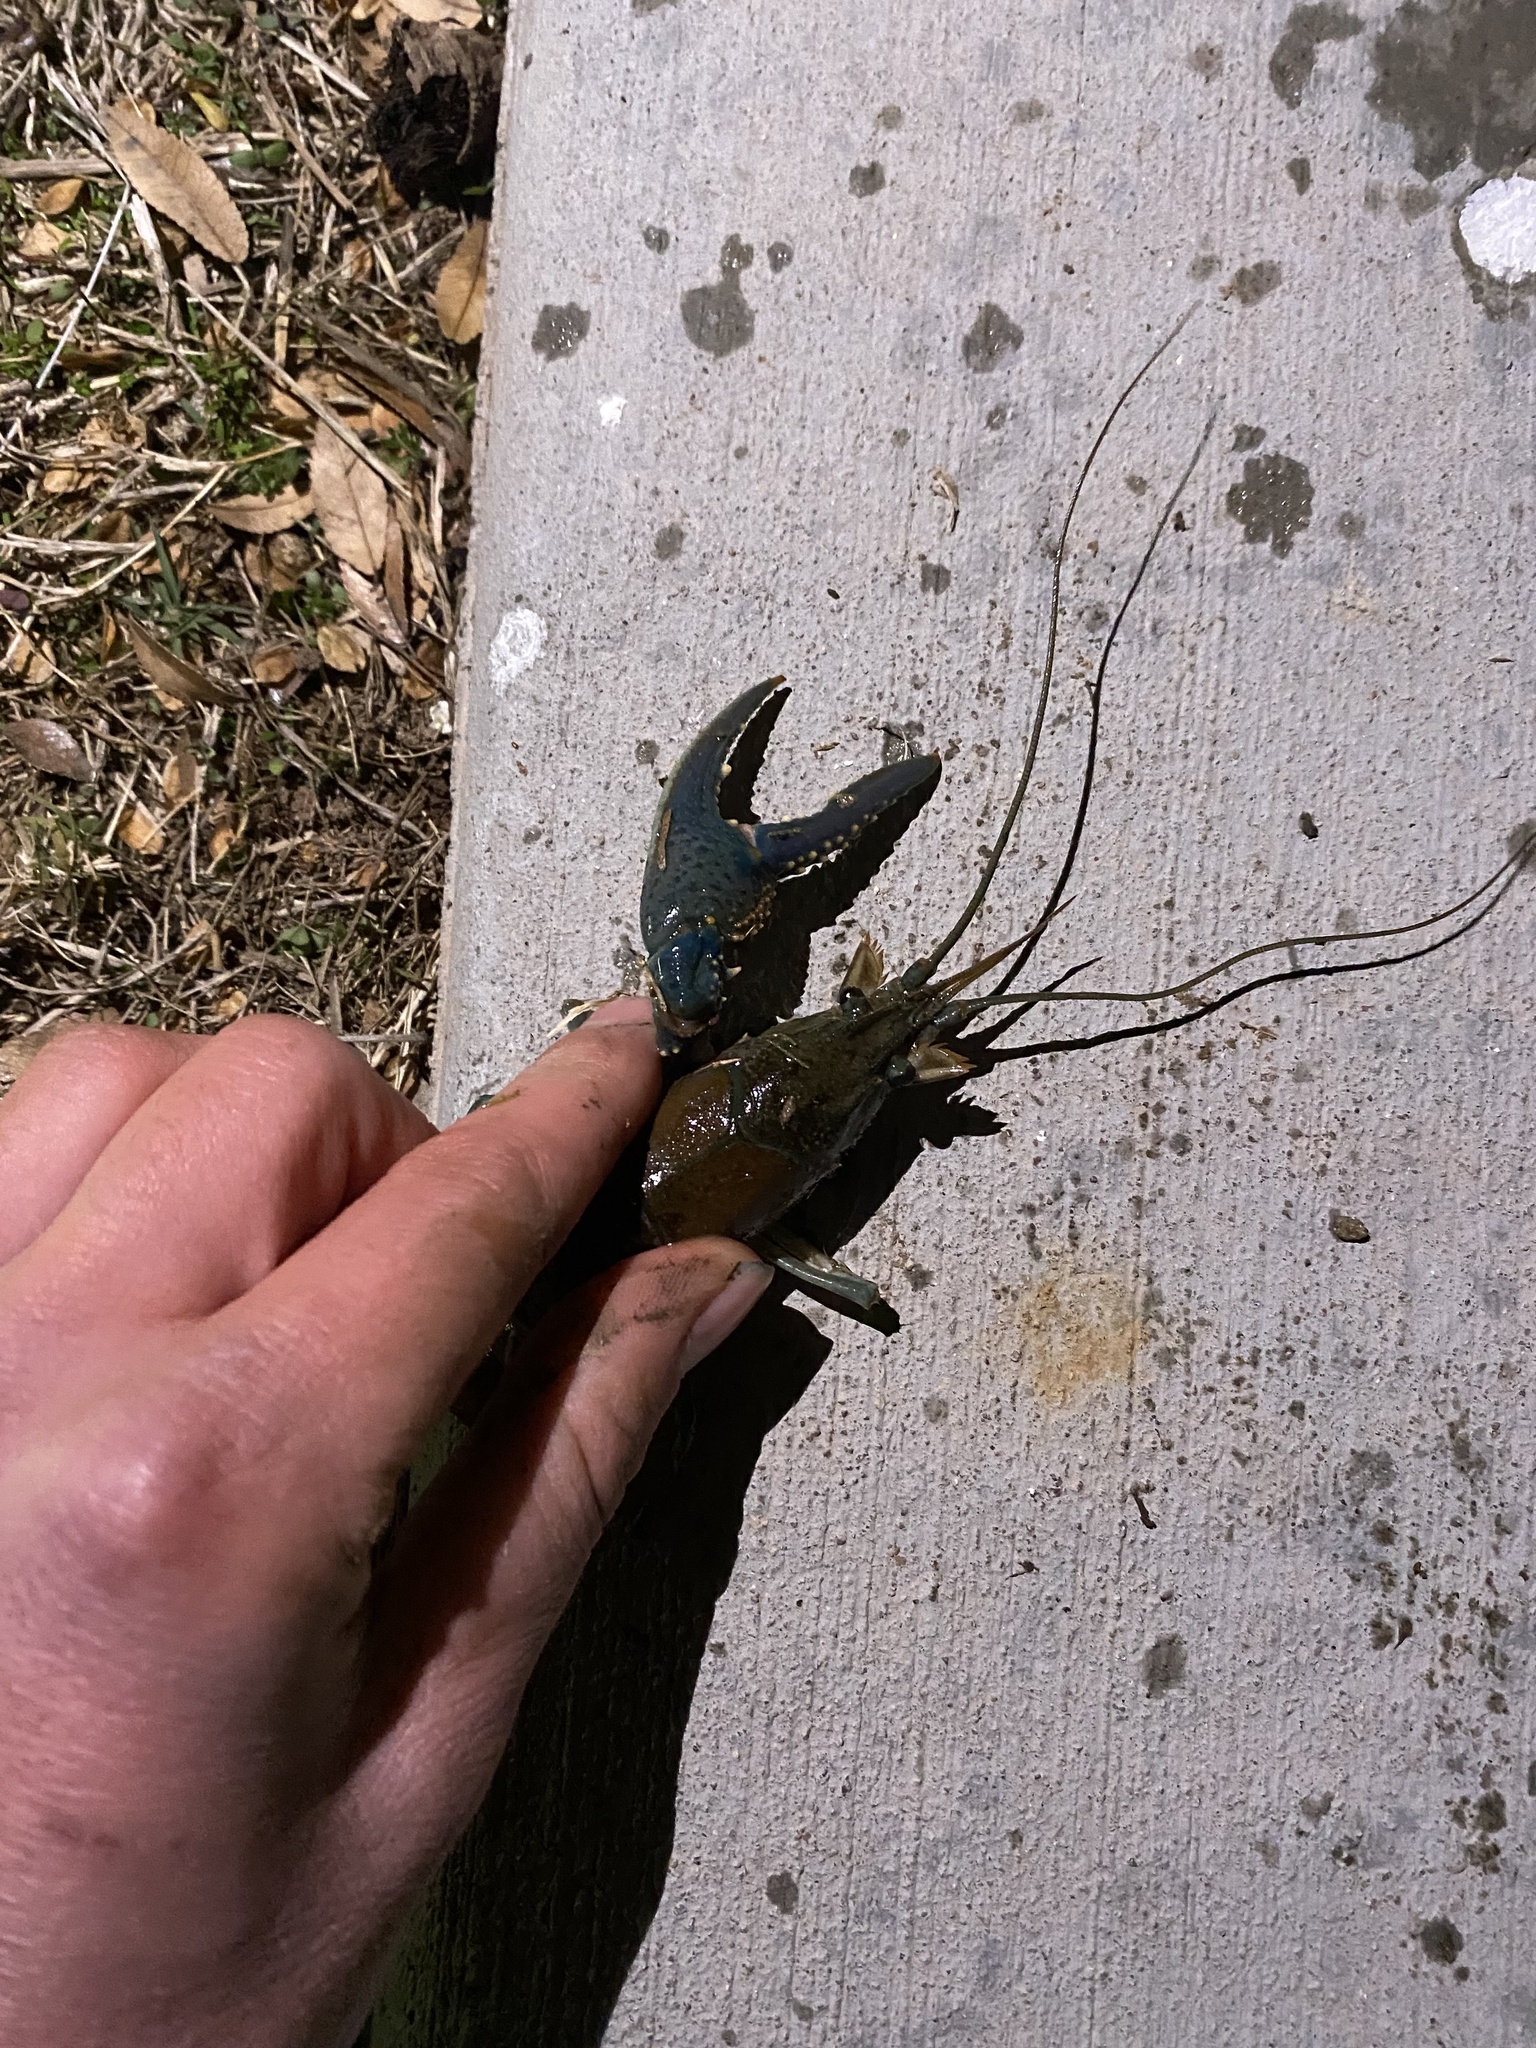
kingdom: Animalia
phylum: Arthropoda
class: Malacostraca
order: Decapoda
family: Cambaridae
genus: Faxonius
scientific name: Faxonius virilis
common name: Virile crayfish
